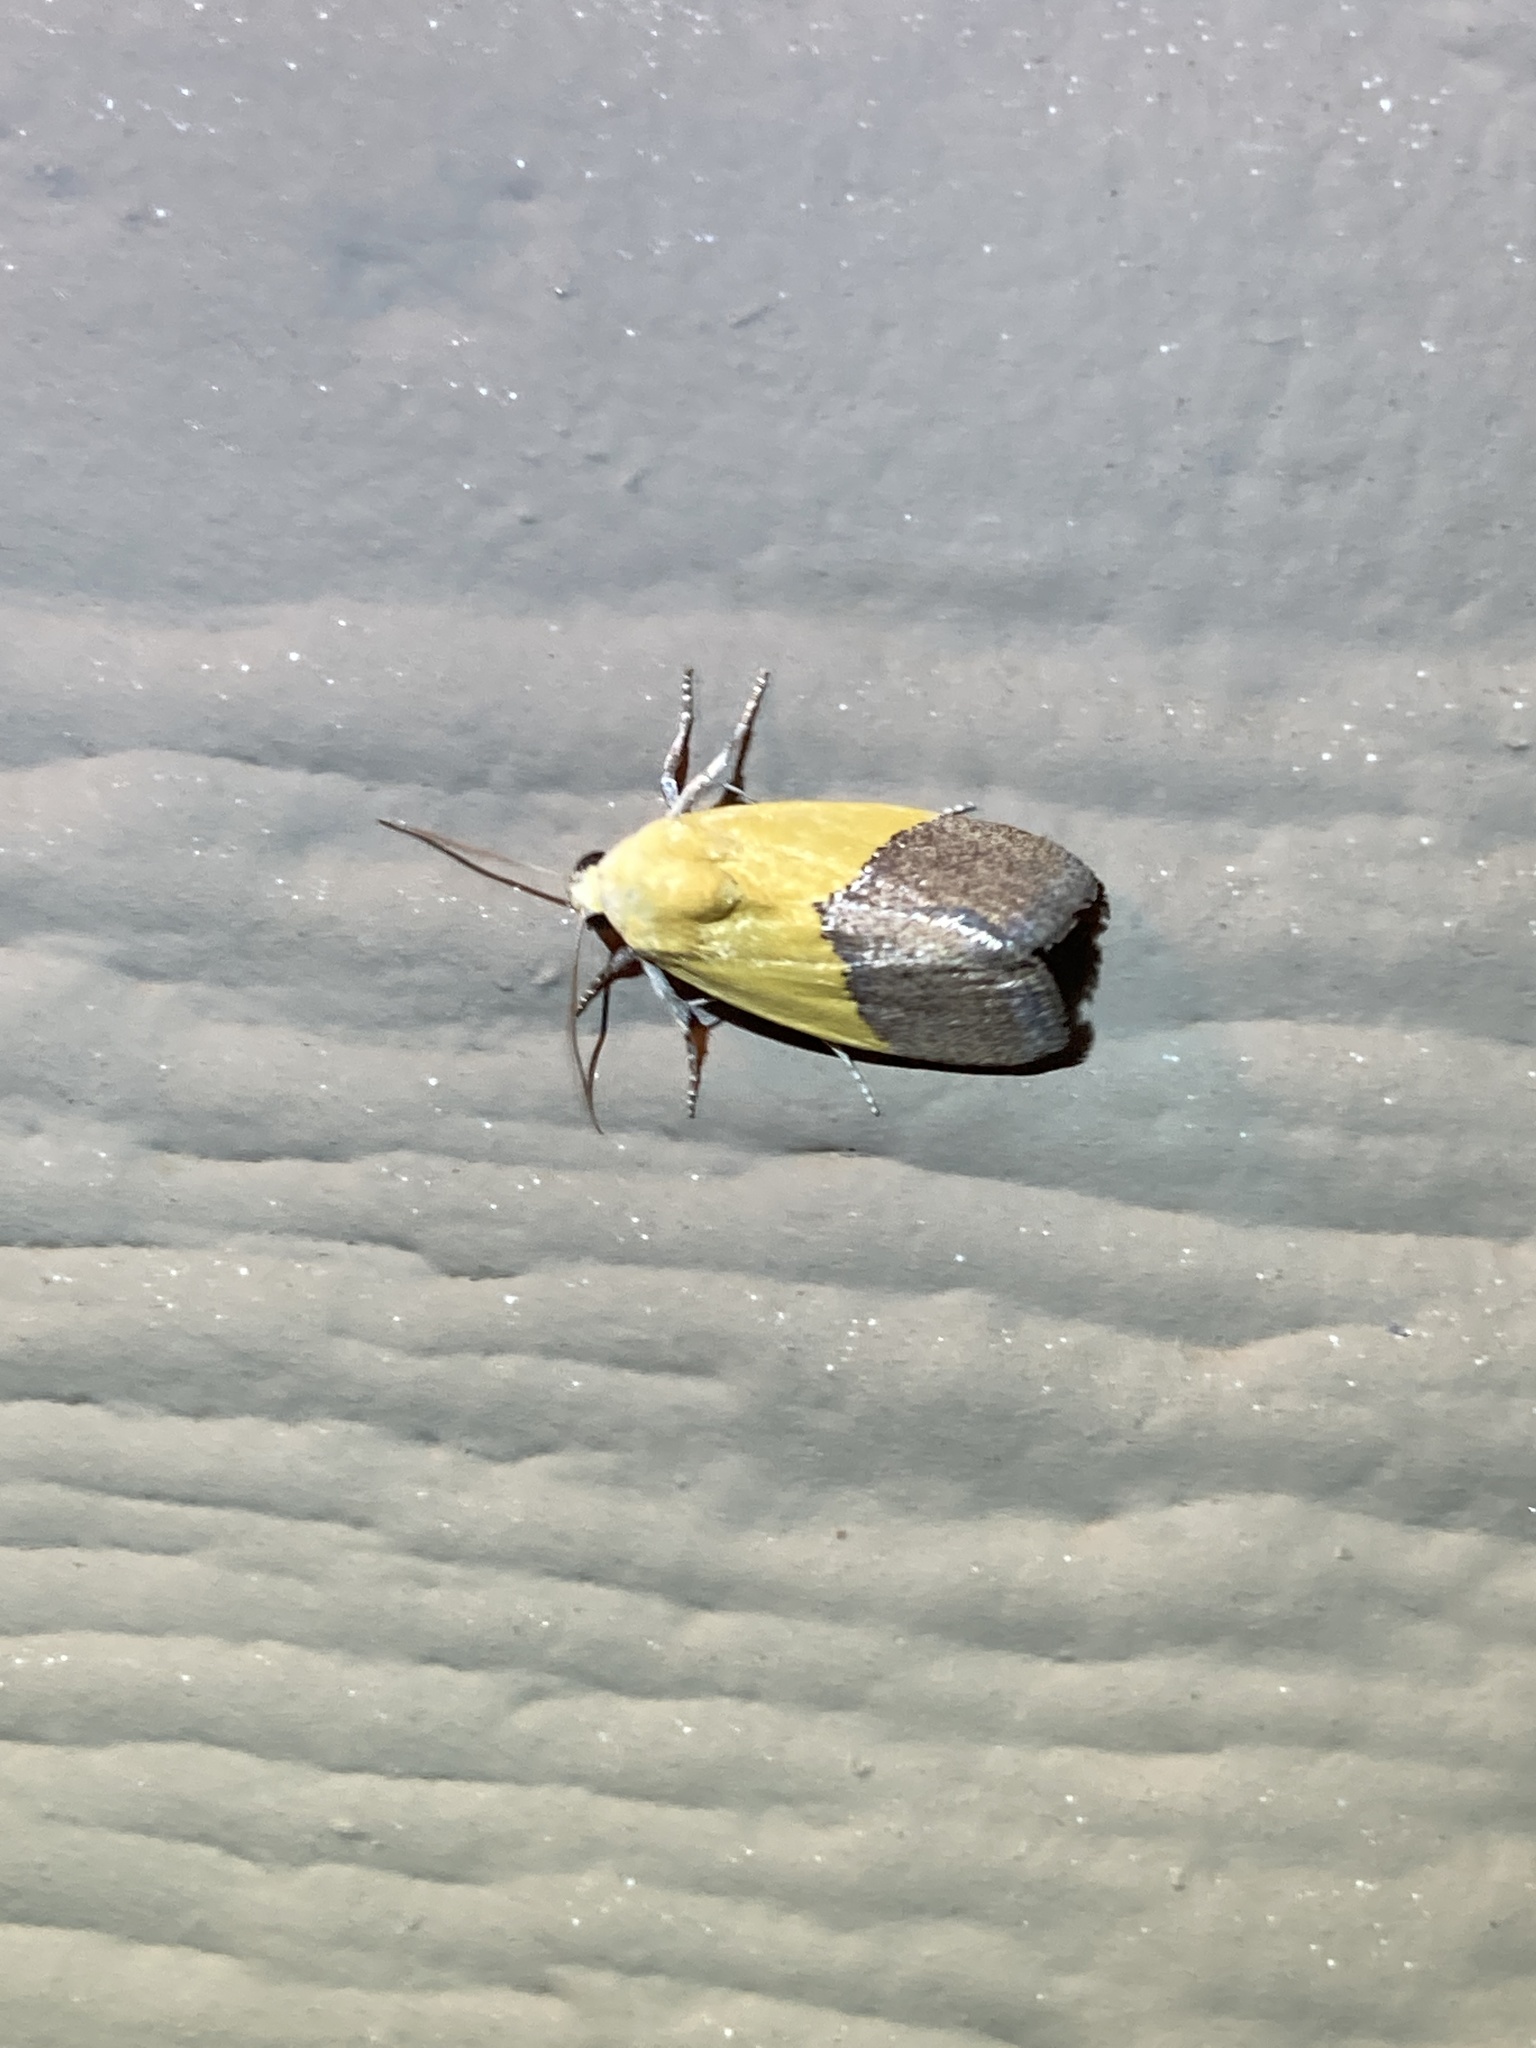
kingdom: Animalia
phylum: Arthropoda
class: Insecta
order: Lepidoptera
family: Noctuidae
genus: Acontia
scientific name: Acontia semiflava
